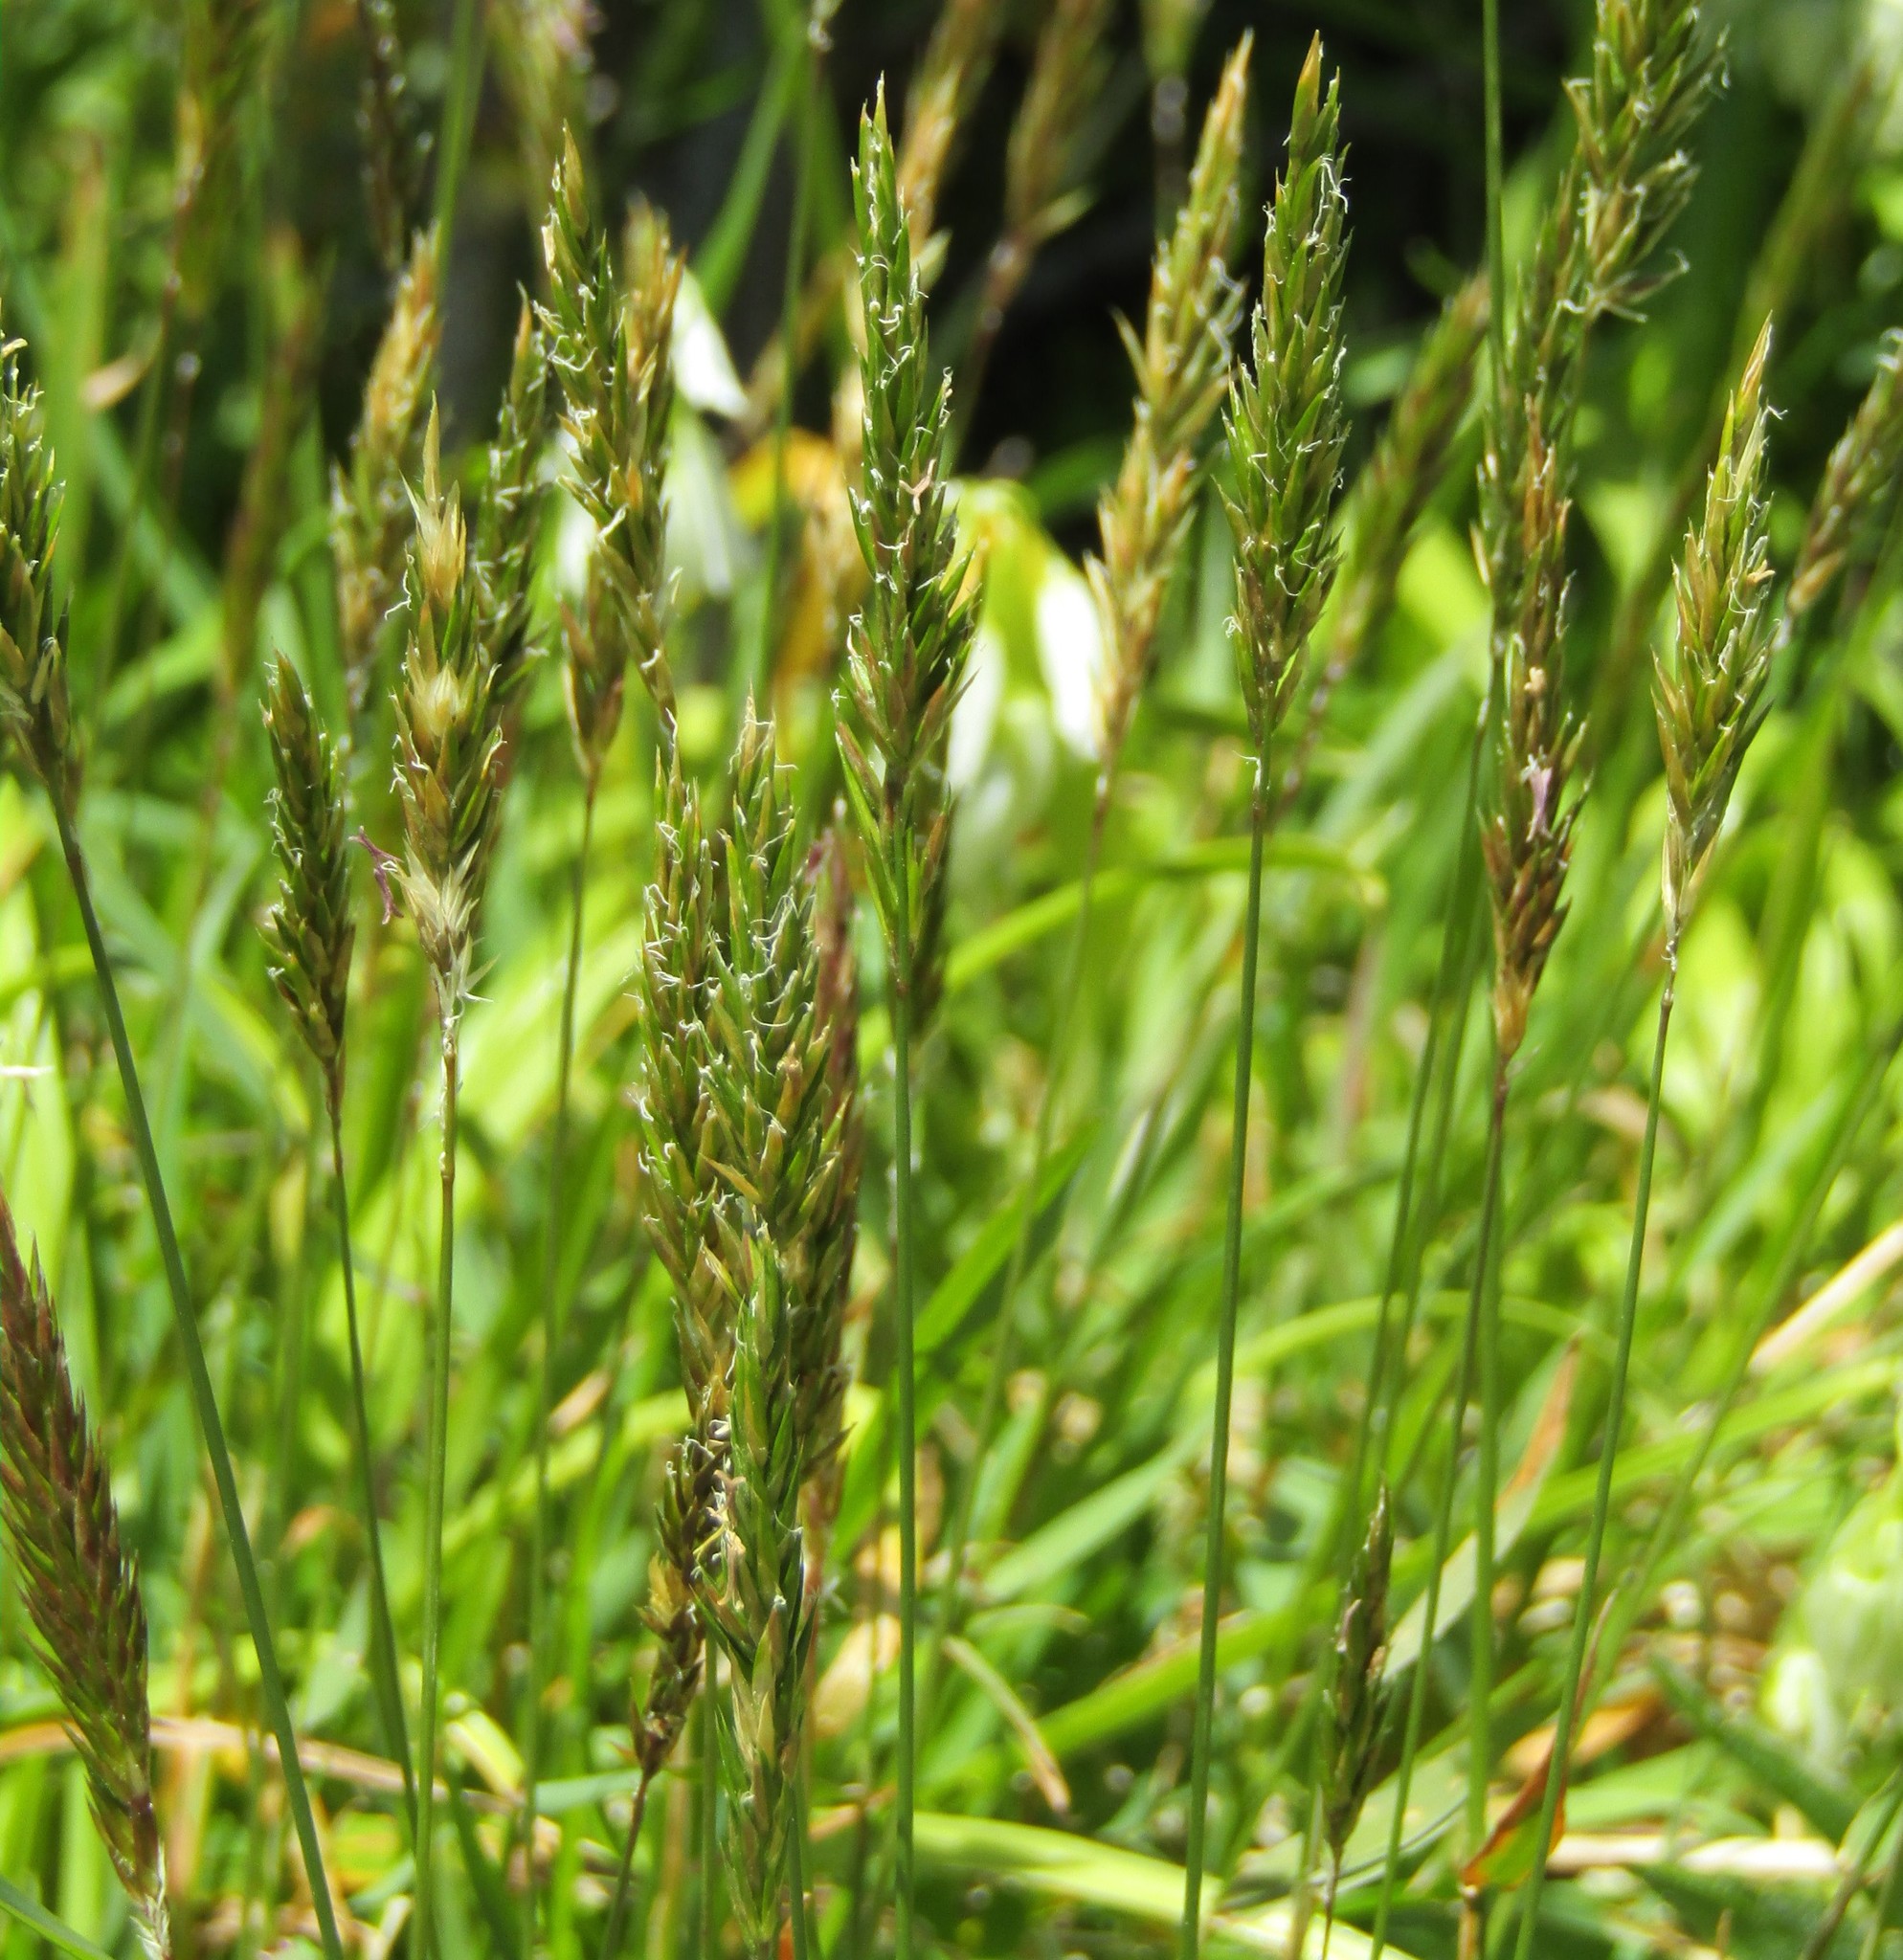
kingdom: Plantae
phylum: Tracheophyta
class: Liliopsida
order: Poales
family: Poaceae
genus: Anthoxanthum
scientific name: Anthoxanthum odoratum
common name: Sweet vernalgrass
